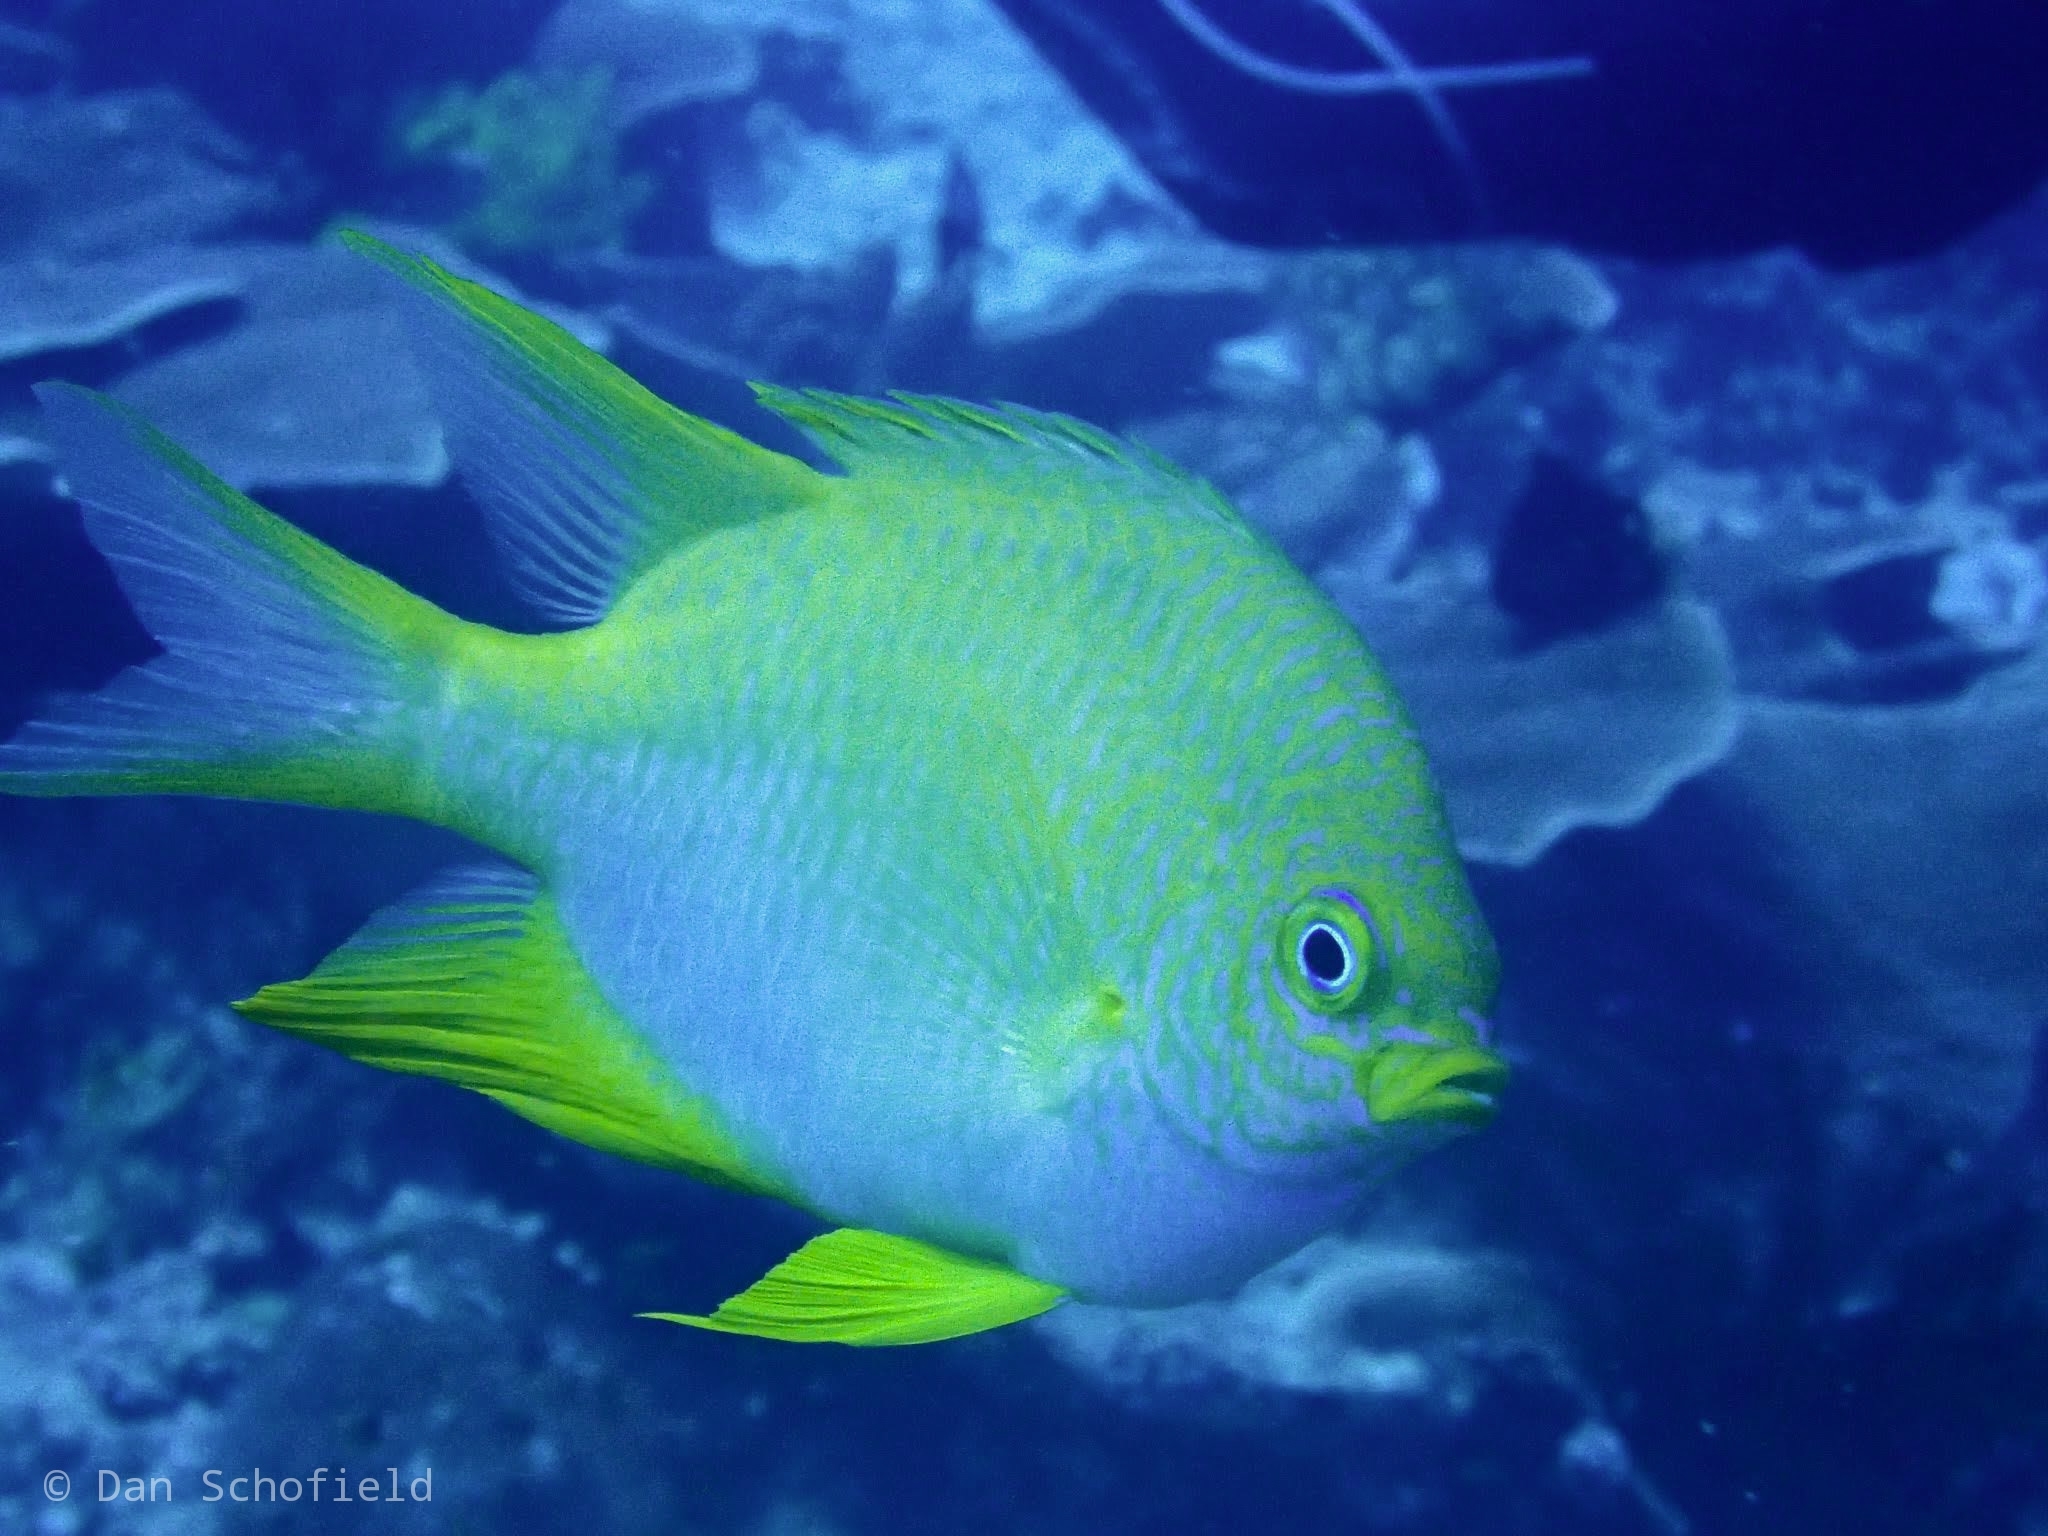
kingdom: Animalia
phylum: Chordata
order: Perciformes
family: Pomacentridae
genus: Amblyglyphidodon
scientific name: Amblyglyphidodon aureus
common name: Golden damsel
